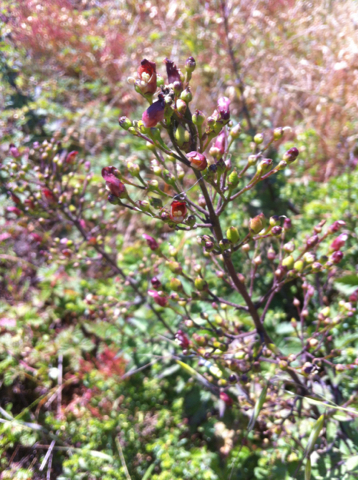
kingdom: Plantae
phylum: Tracheophyta
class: Magnoliopsida
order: Lamiales
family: Scrophulariaceae
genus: Scrophularia
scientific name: Scrophularia californica
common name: California figwort
